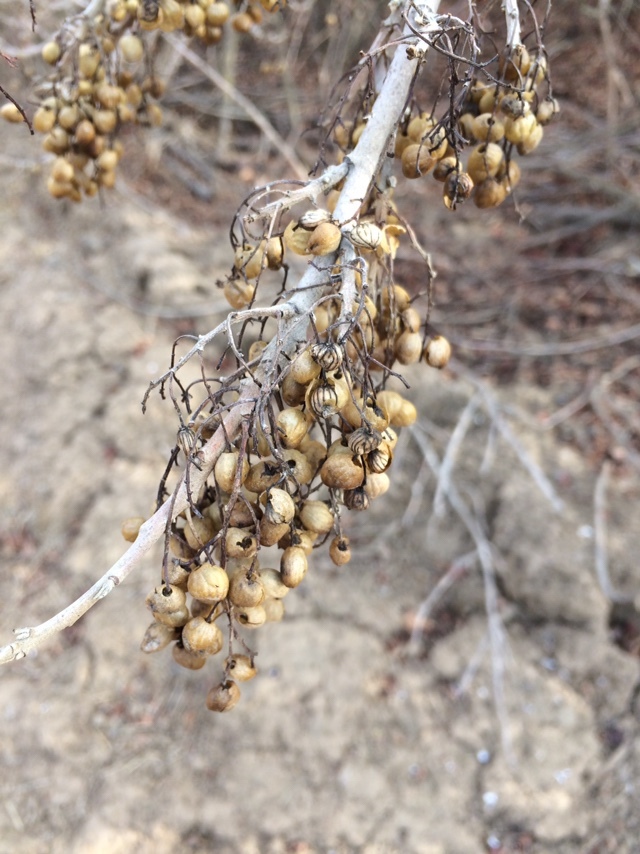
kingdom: Plantae
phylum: Tracheophyta
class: Magnoliopsida
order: Sapindales
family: Anacardiaceae
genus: Toxicodendron
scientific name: Toxicodendron diversilobum
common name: Pacific poison-oak
